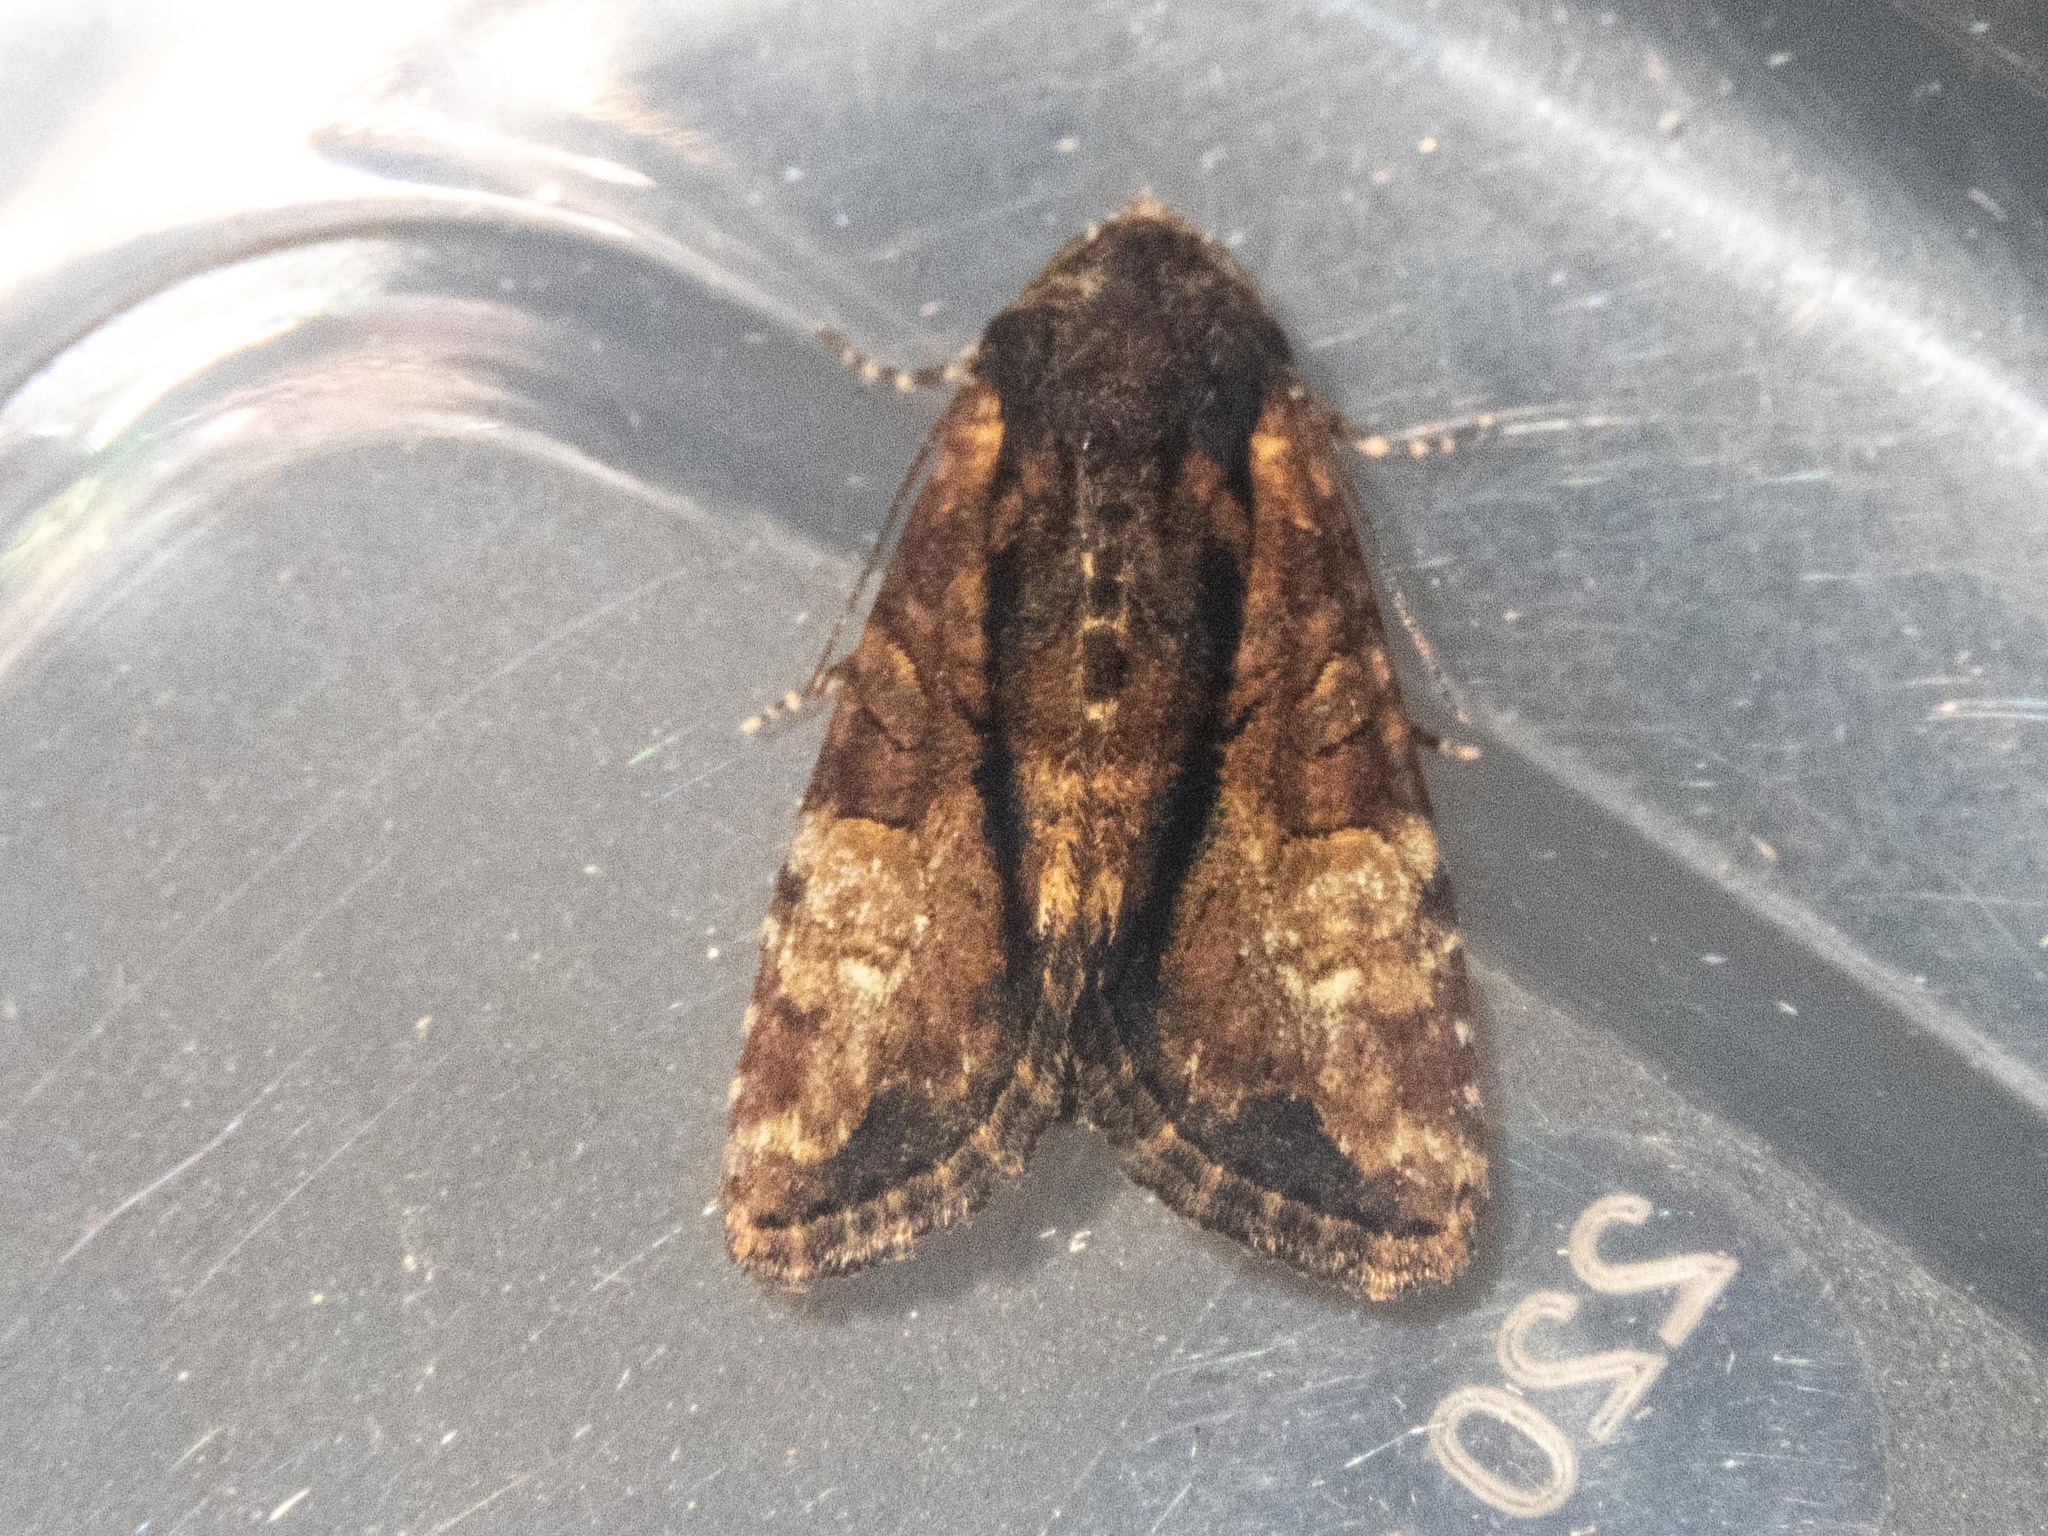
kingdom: Animalia
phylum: Arthropoda
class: Insecta
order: Lepidoptera
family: Noctuidae
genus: Mesoligia
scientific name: Mesoligia furuncula
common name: Cloaked minor
